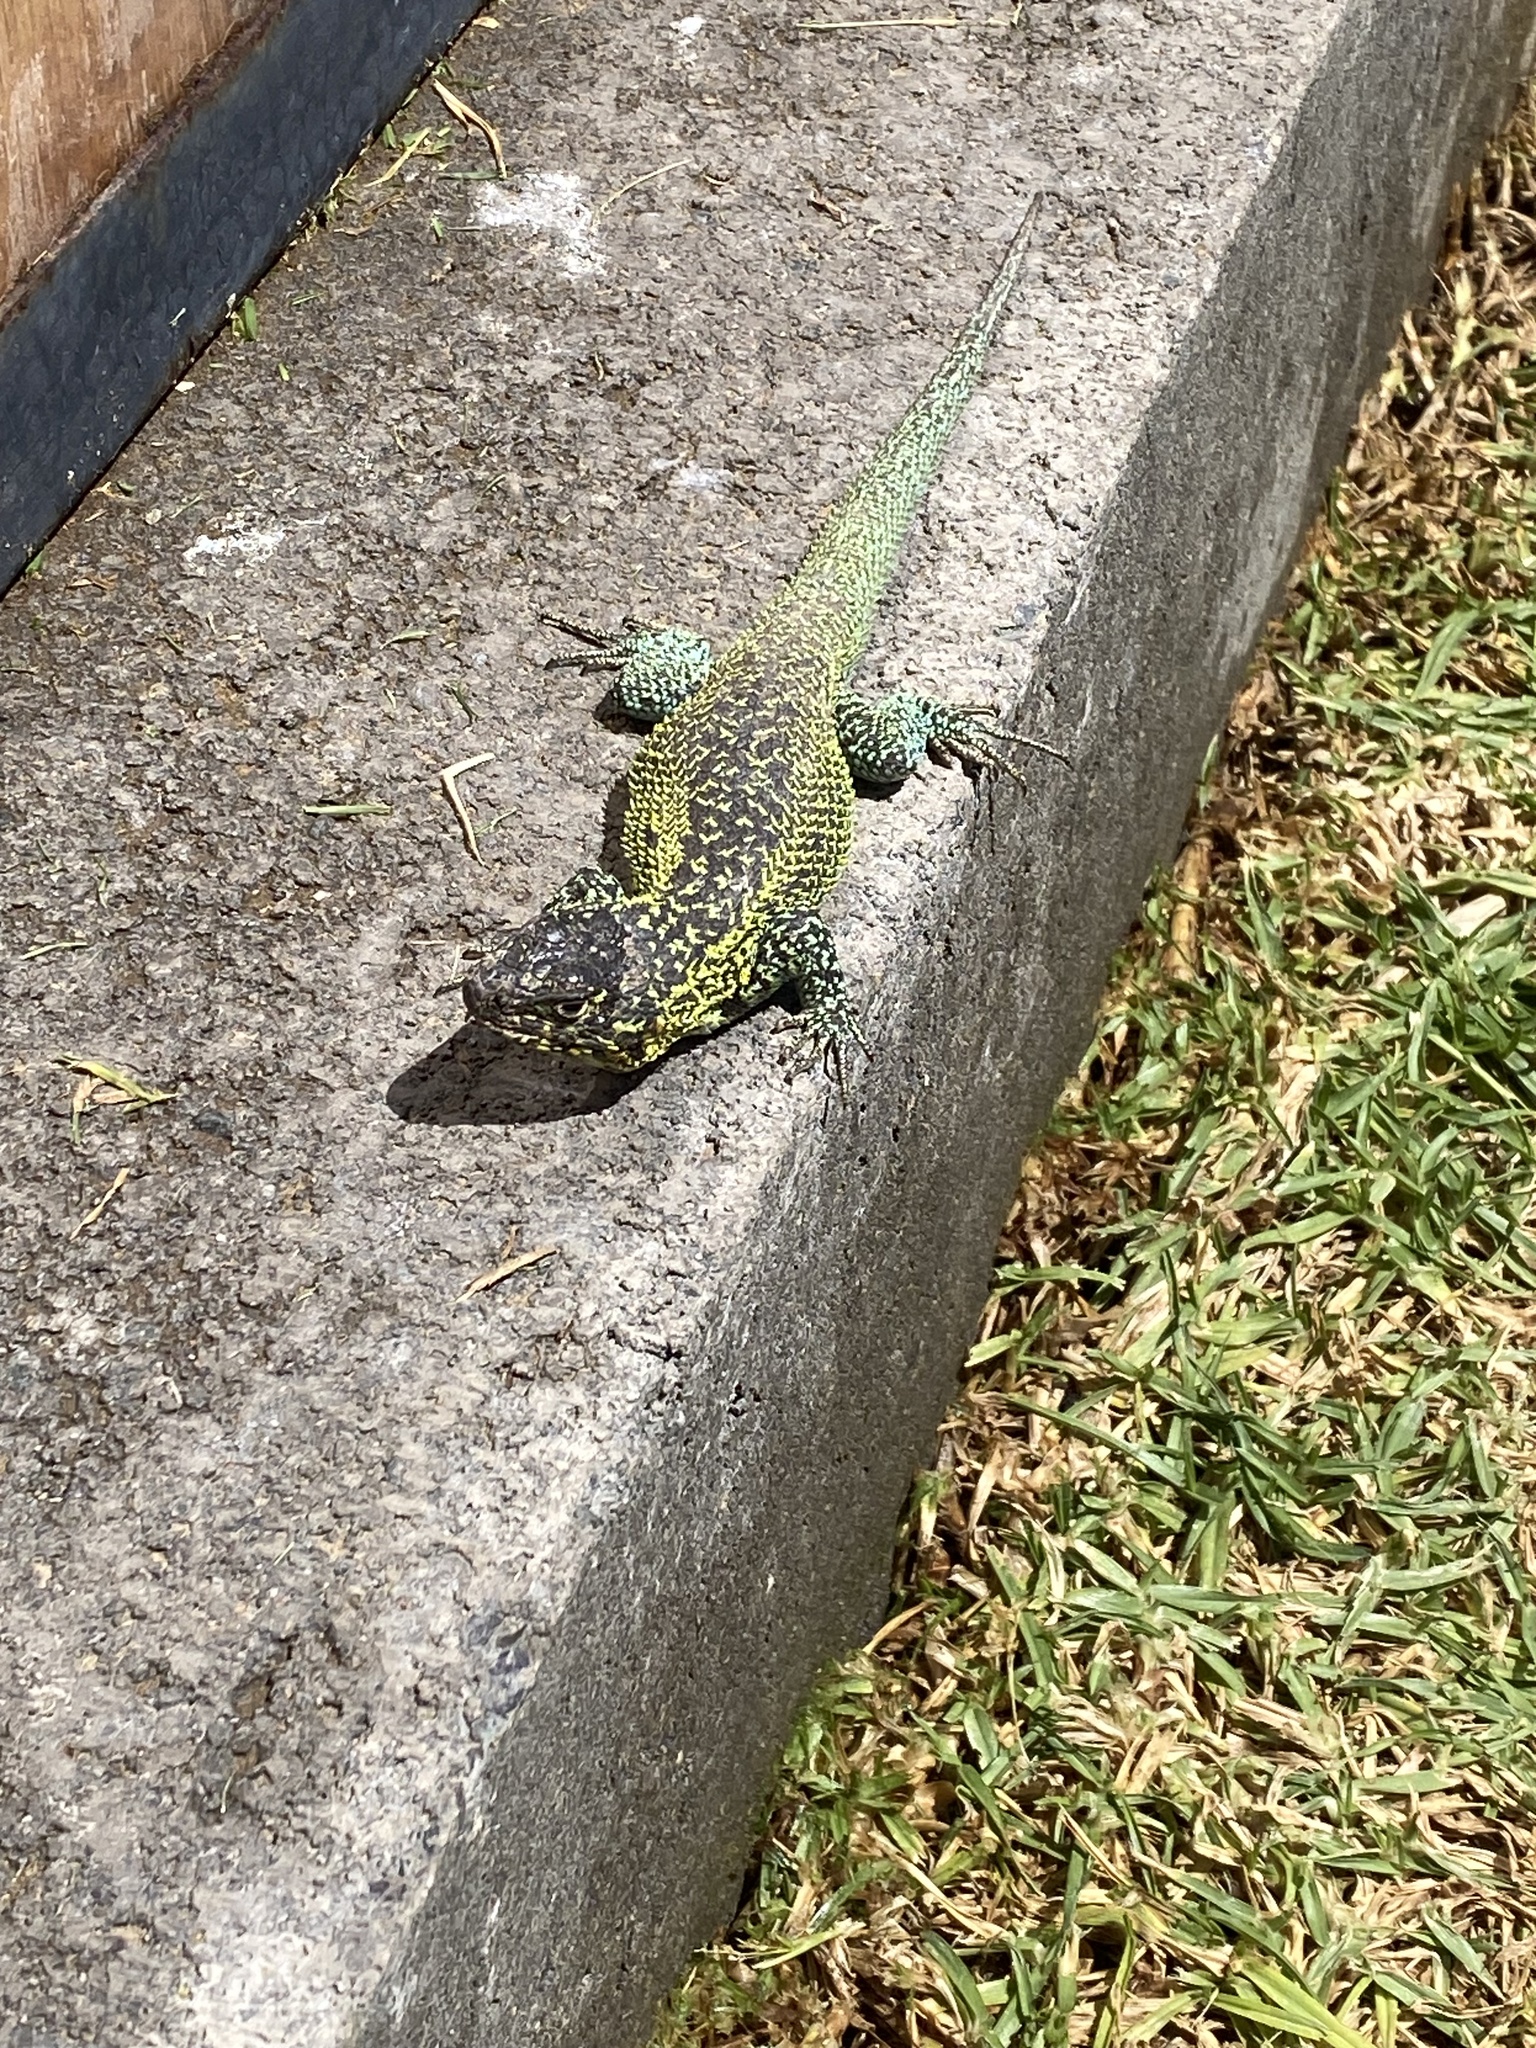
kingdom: Animalia
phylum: Chordata
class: Squamata
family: Liolaemidae
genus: Liolaemus
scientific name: Liolaemus zapallarensis
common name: Zapallaren tree iguana
